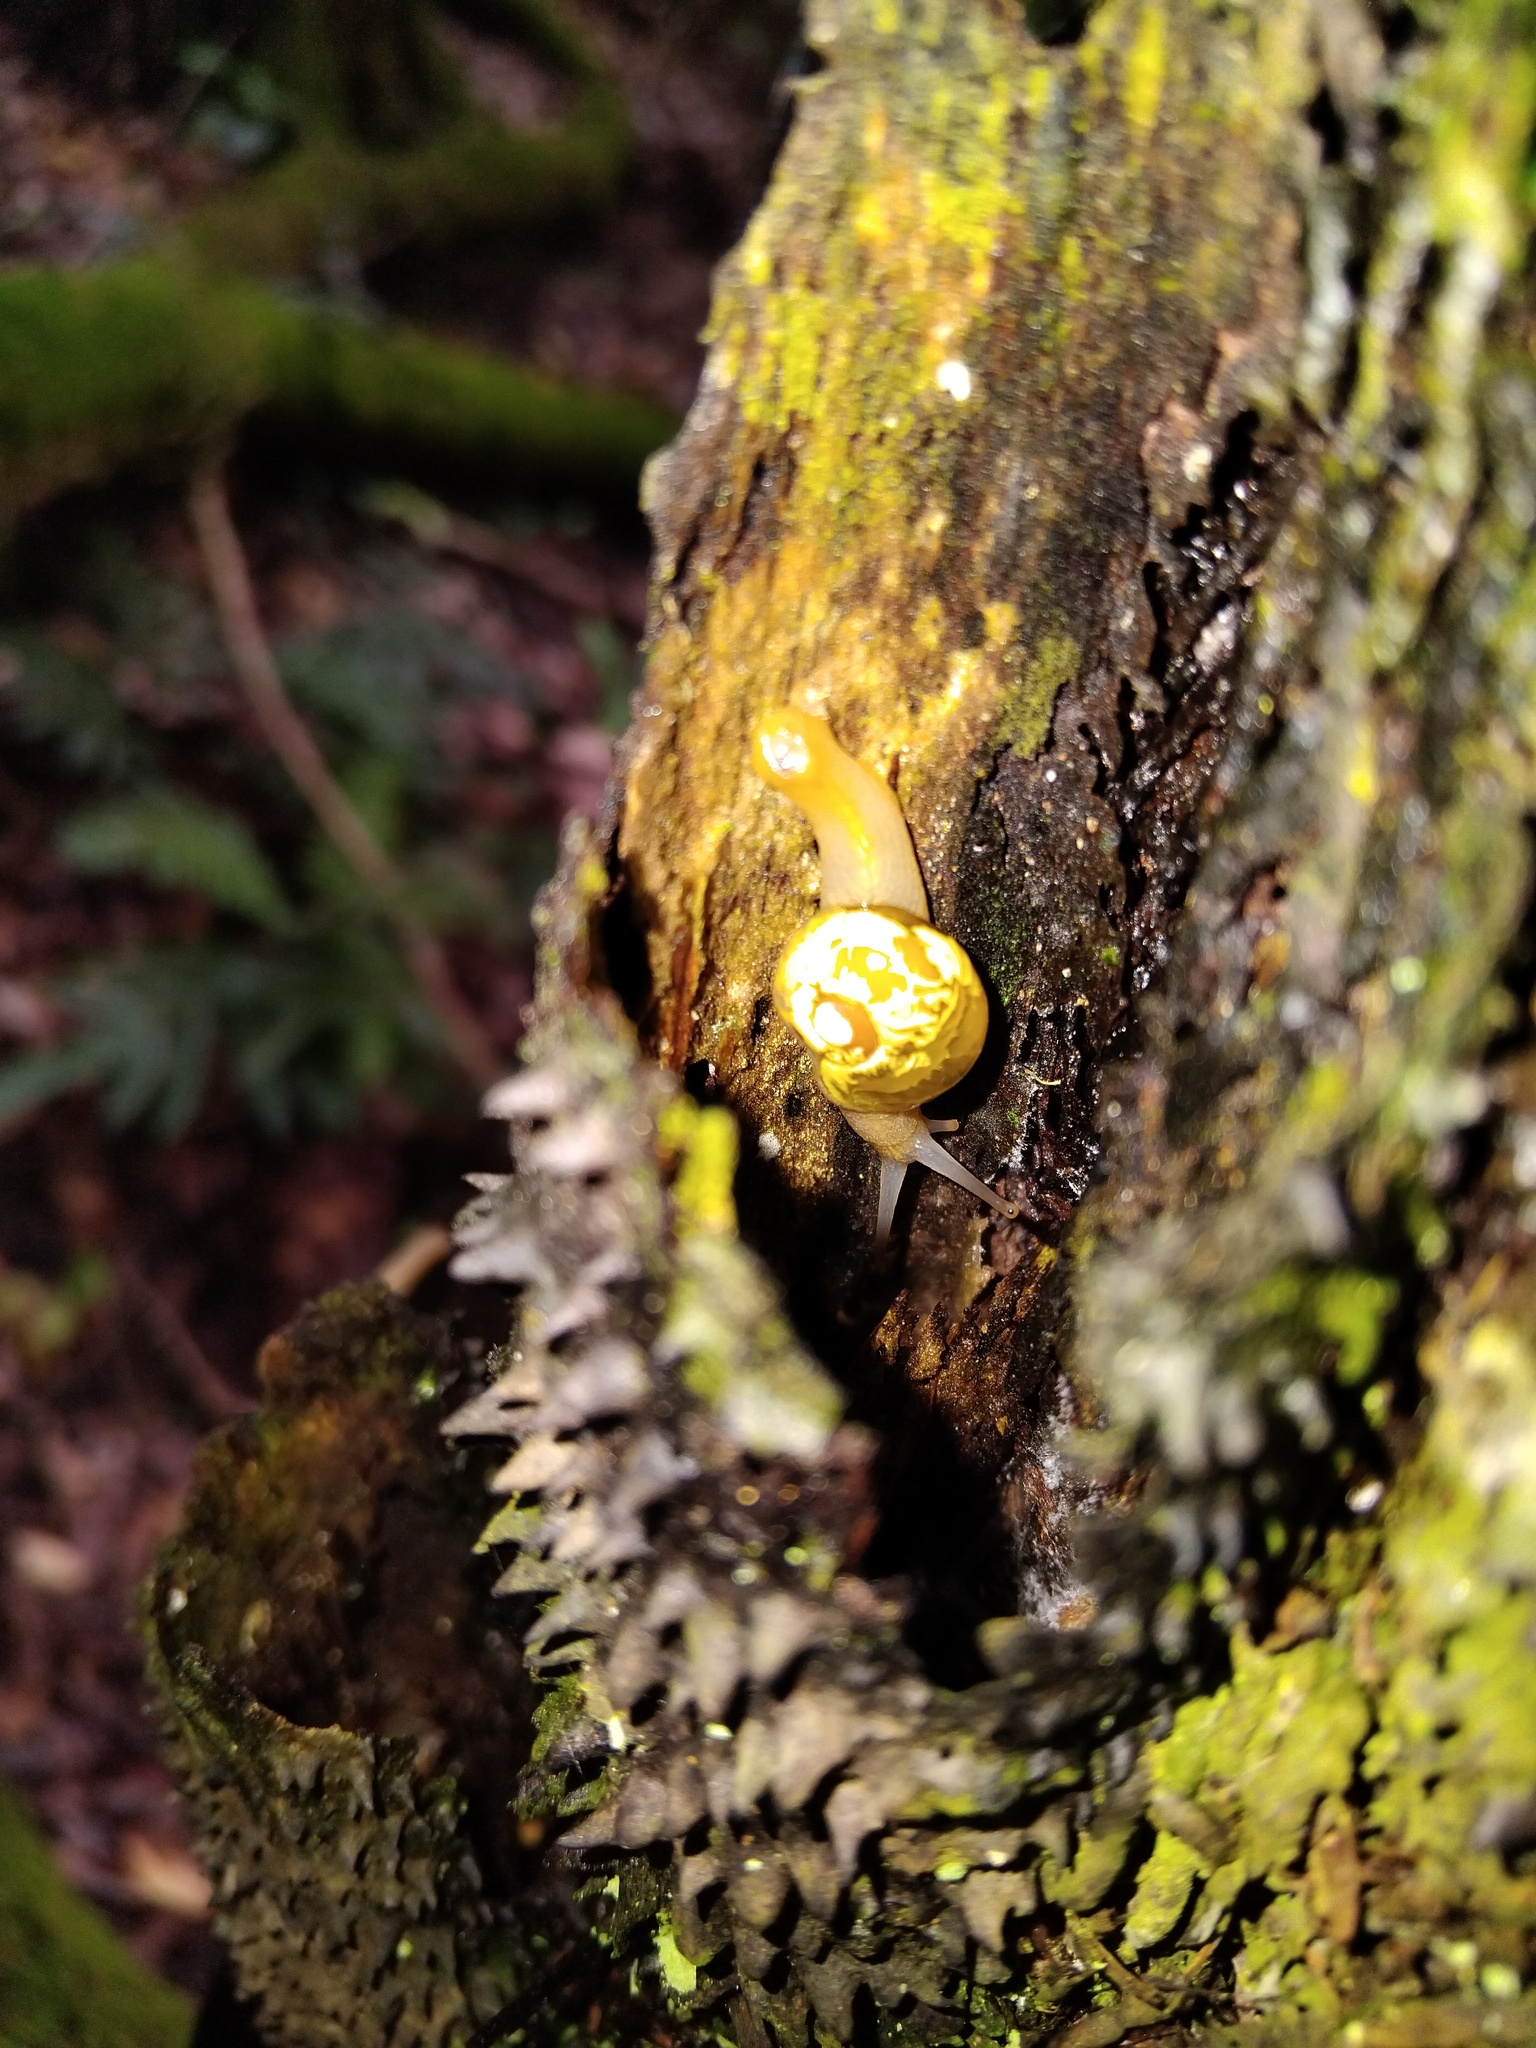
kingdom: Animalia
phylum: Mollusca
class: Gastropoda
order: Stylommatophora
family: Helicarionidae
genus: Mysticarion
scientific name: Mysticarion porrectus
